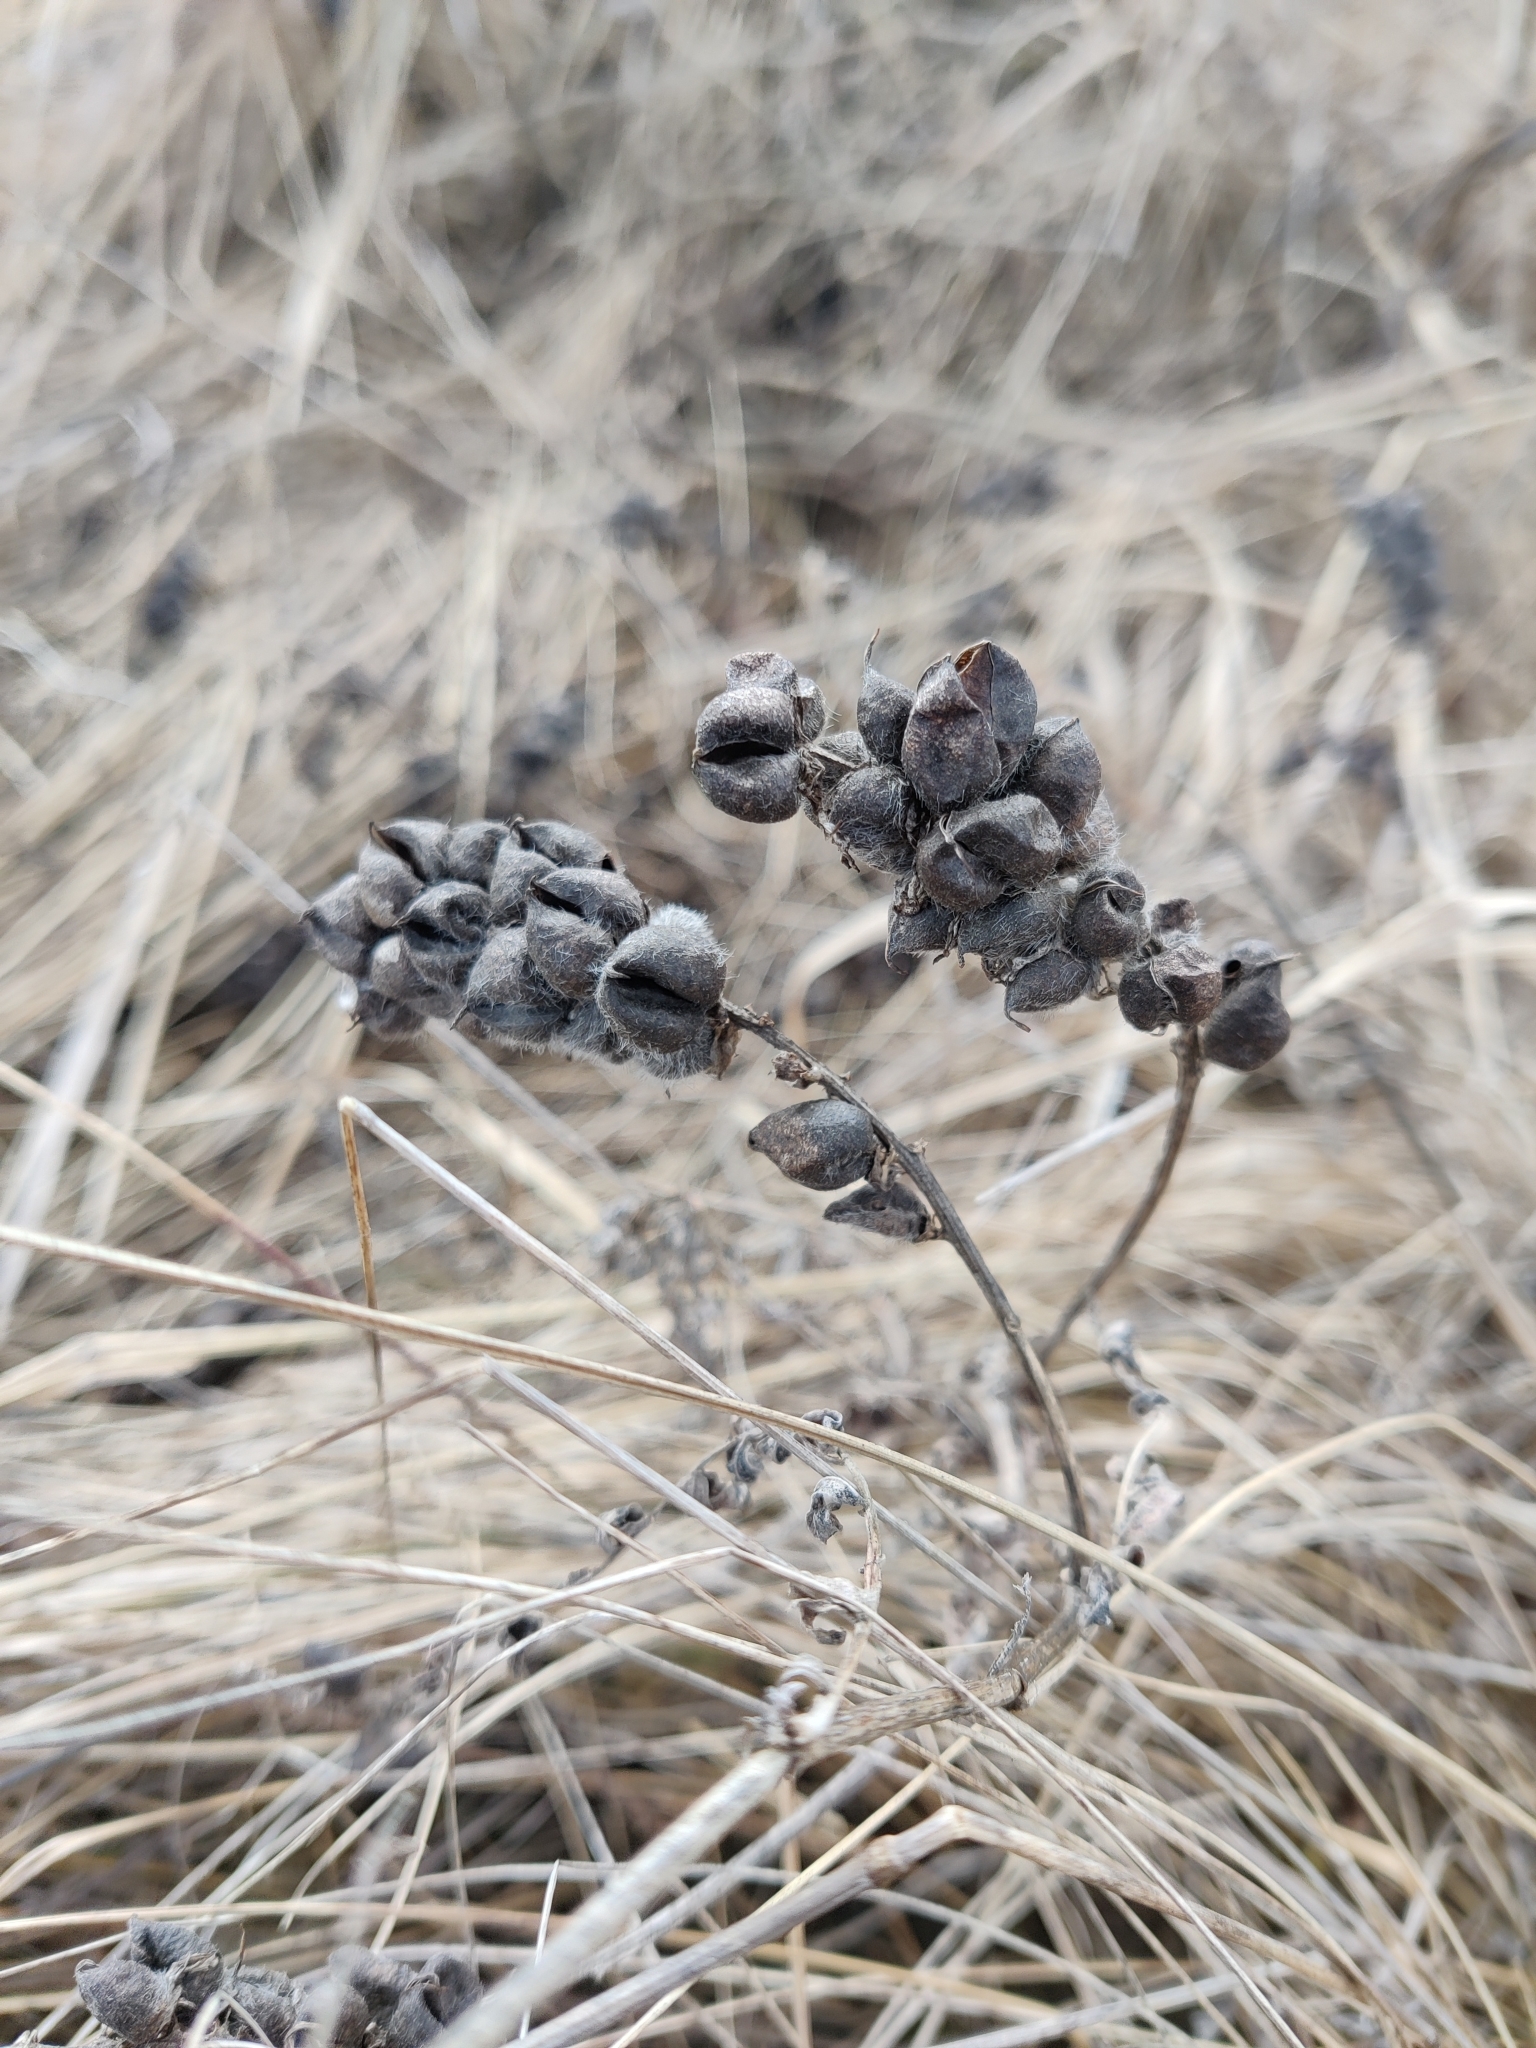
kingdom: Plantae
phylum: Tracheophyta
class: Magnoliopsida
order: Fabales
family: Fabaceae
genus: Astragalus
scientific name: Astragalus cicer
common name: Chick-pea milk-vetch
